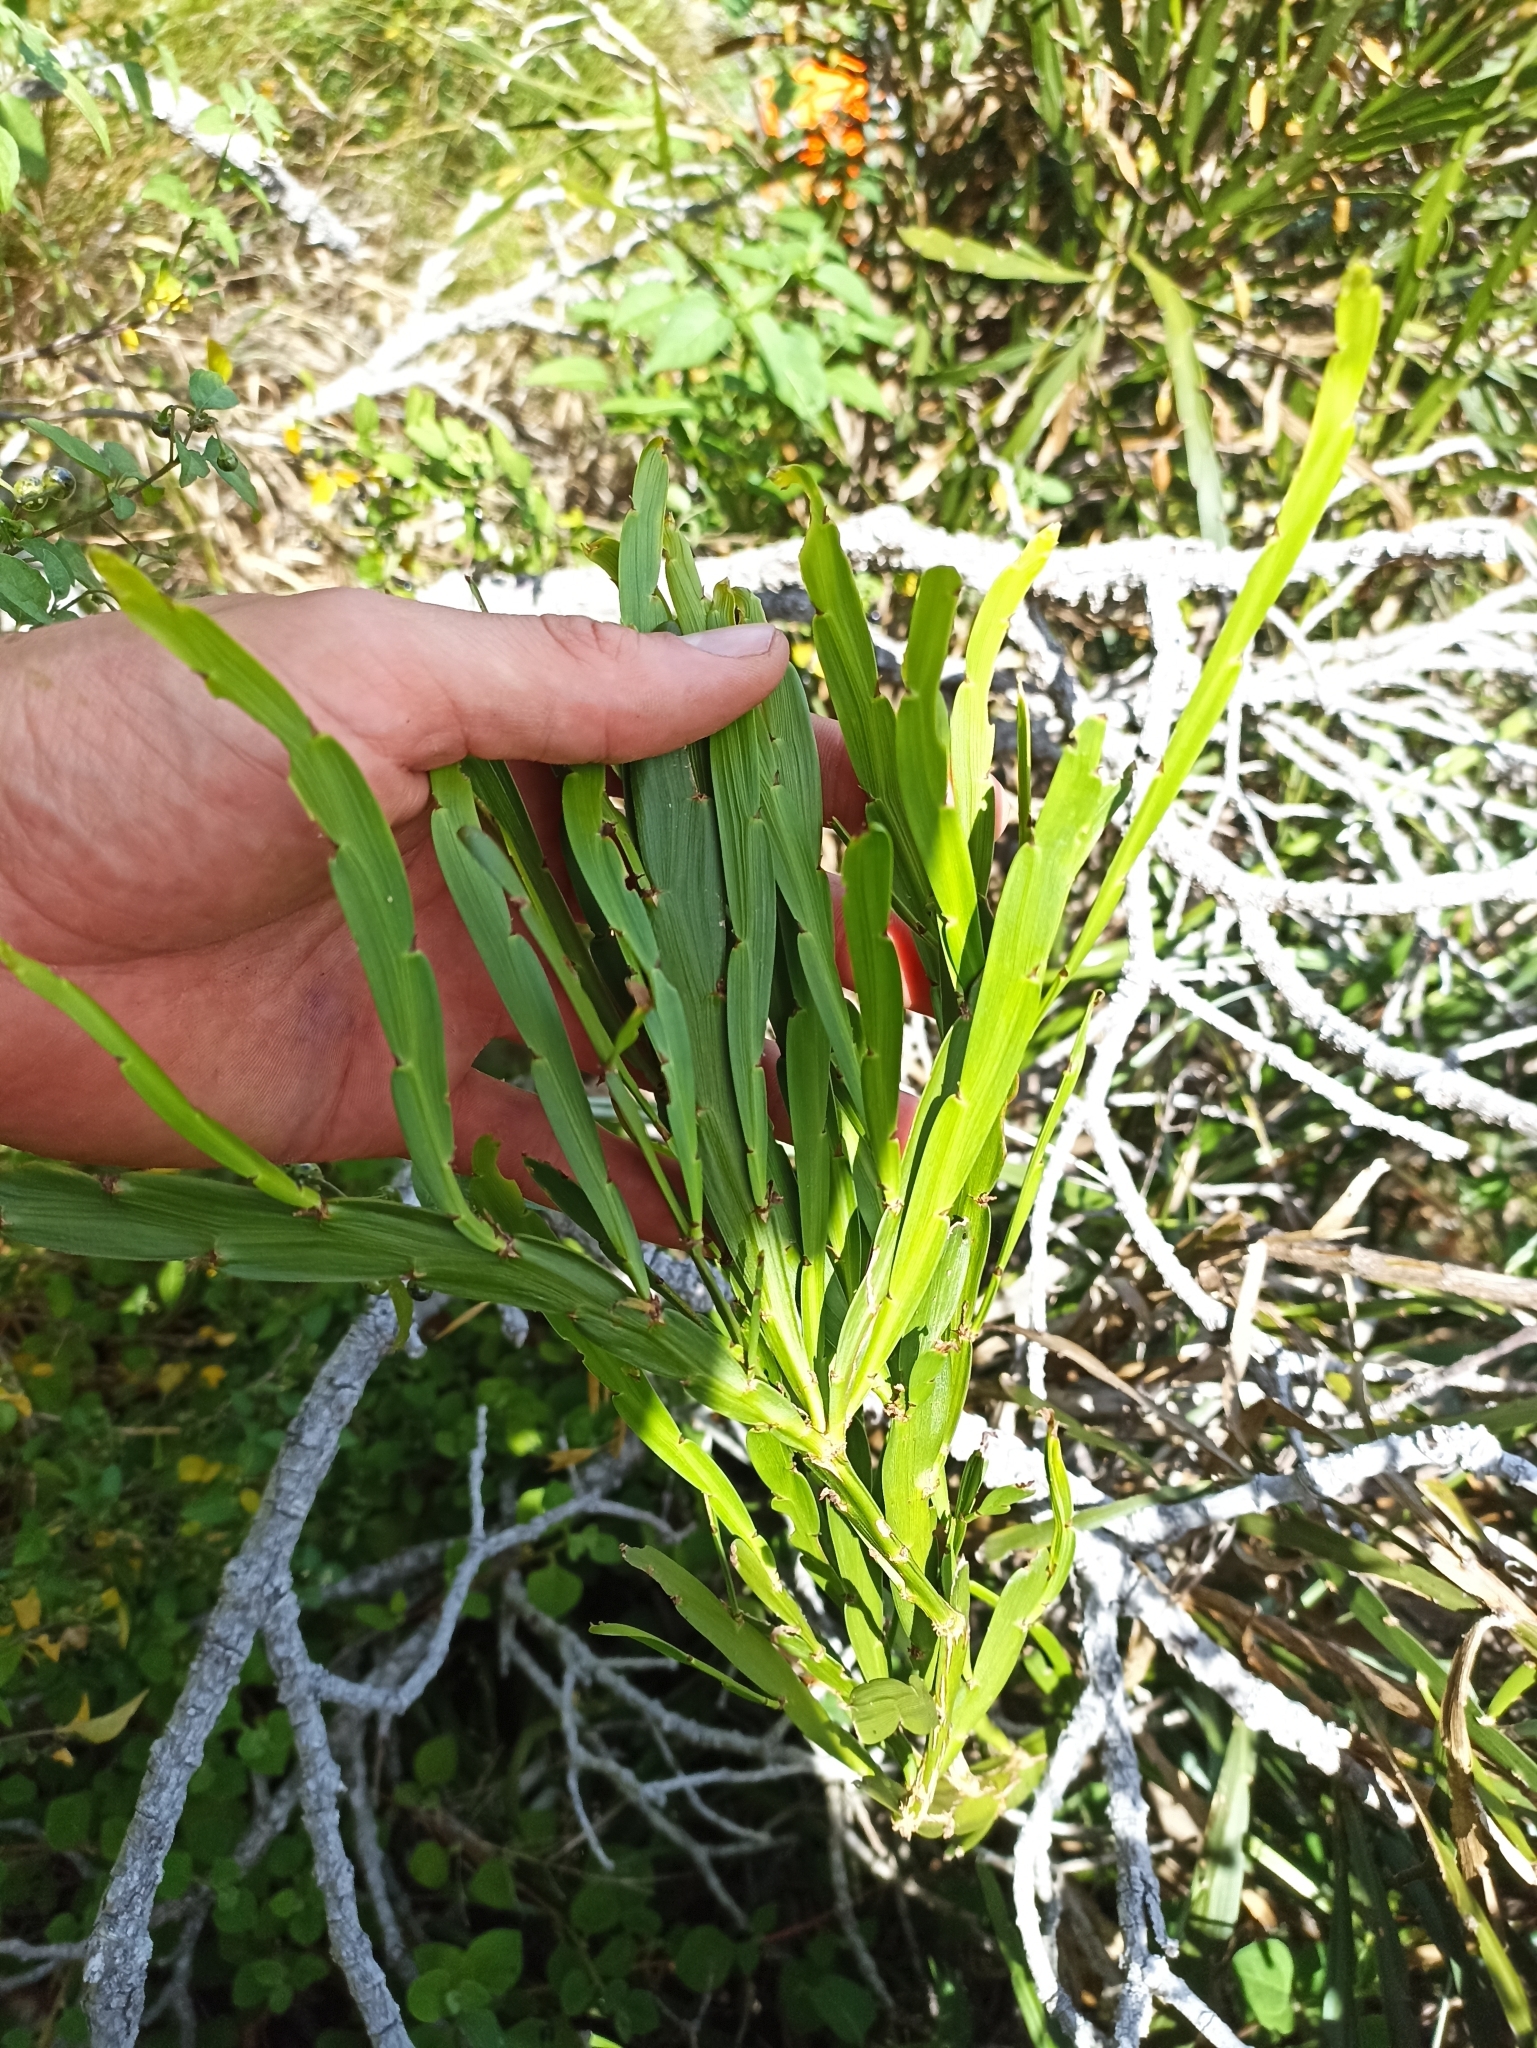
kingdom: Plantae
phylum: Tracheophyta
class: Magnoliopsida
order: Fabales
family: Fabaceae
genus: Carmichaelia
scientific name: Carmichaelia williamsii
